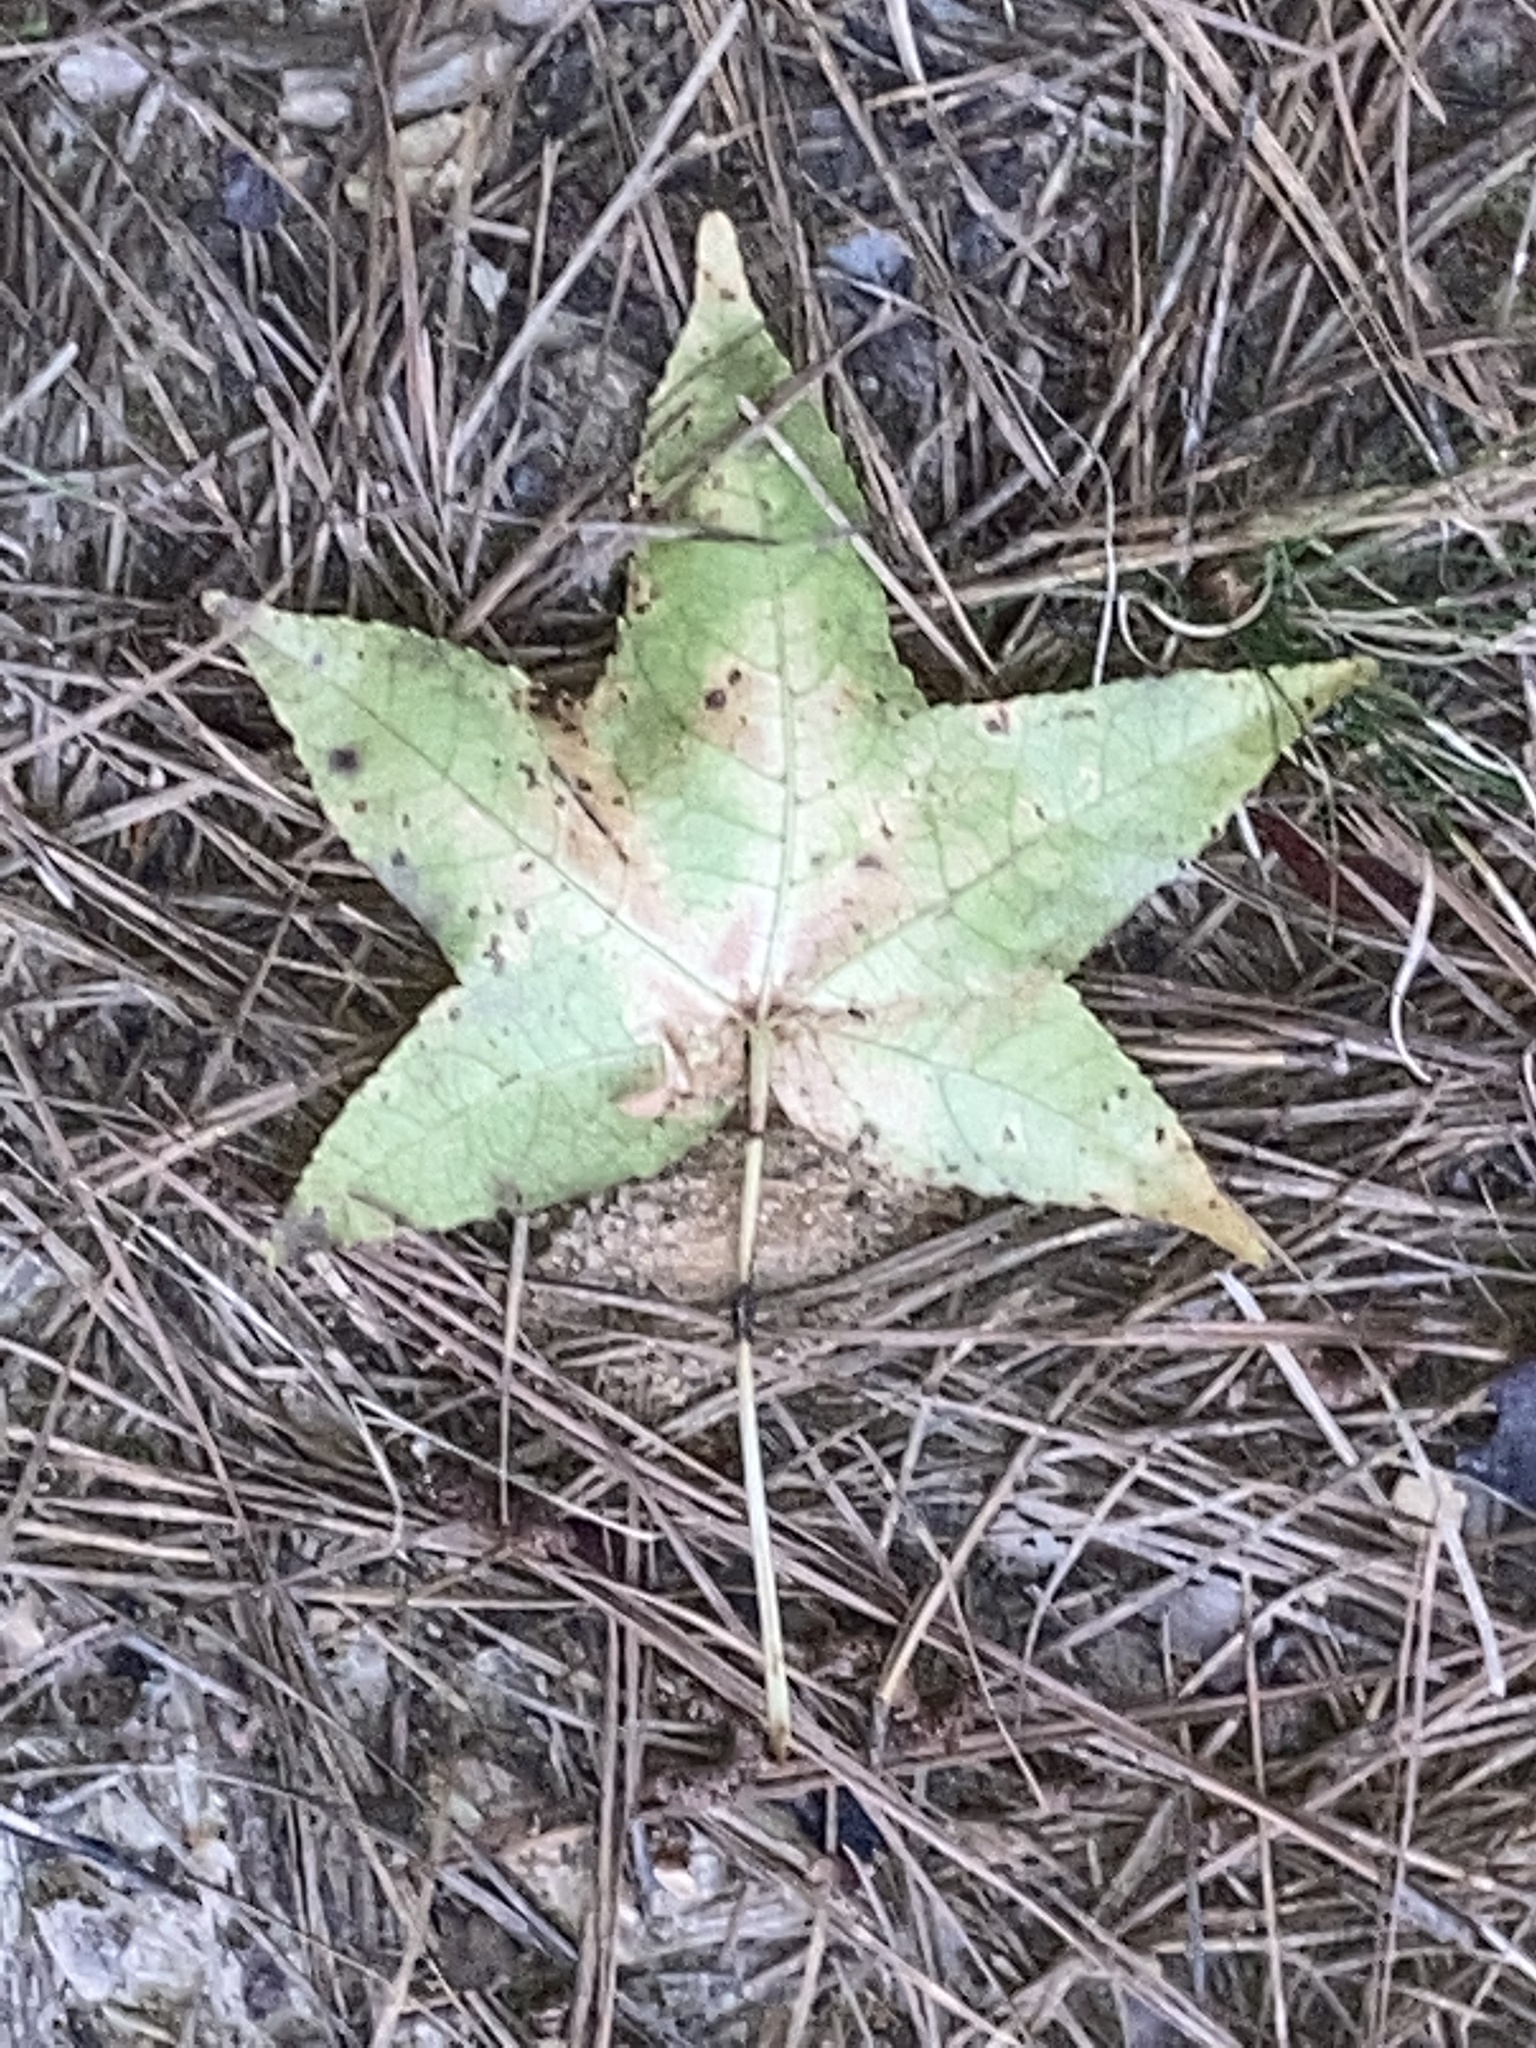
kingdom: Plantae
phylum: Tracheophyta
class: Magnoliopsida
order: Saxifragales
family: Altingiaceae
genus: Liquidambar
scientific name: Liquidambar styraciflua
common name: Sweet gum
